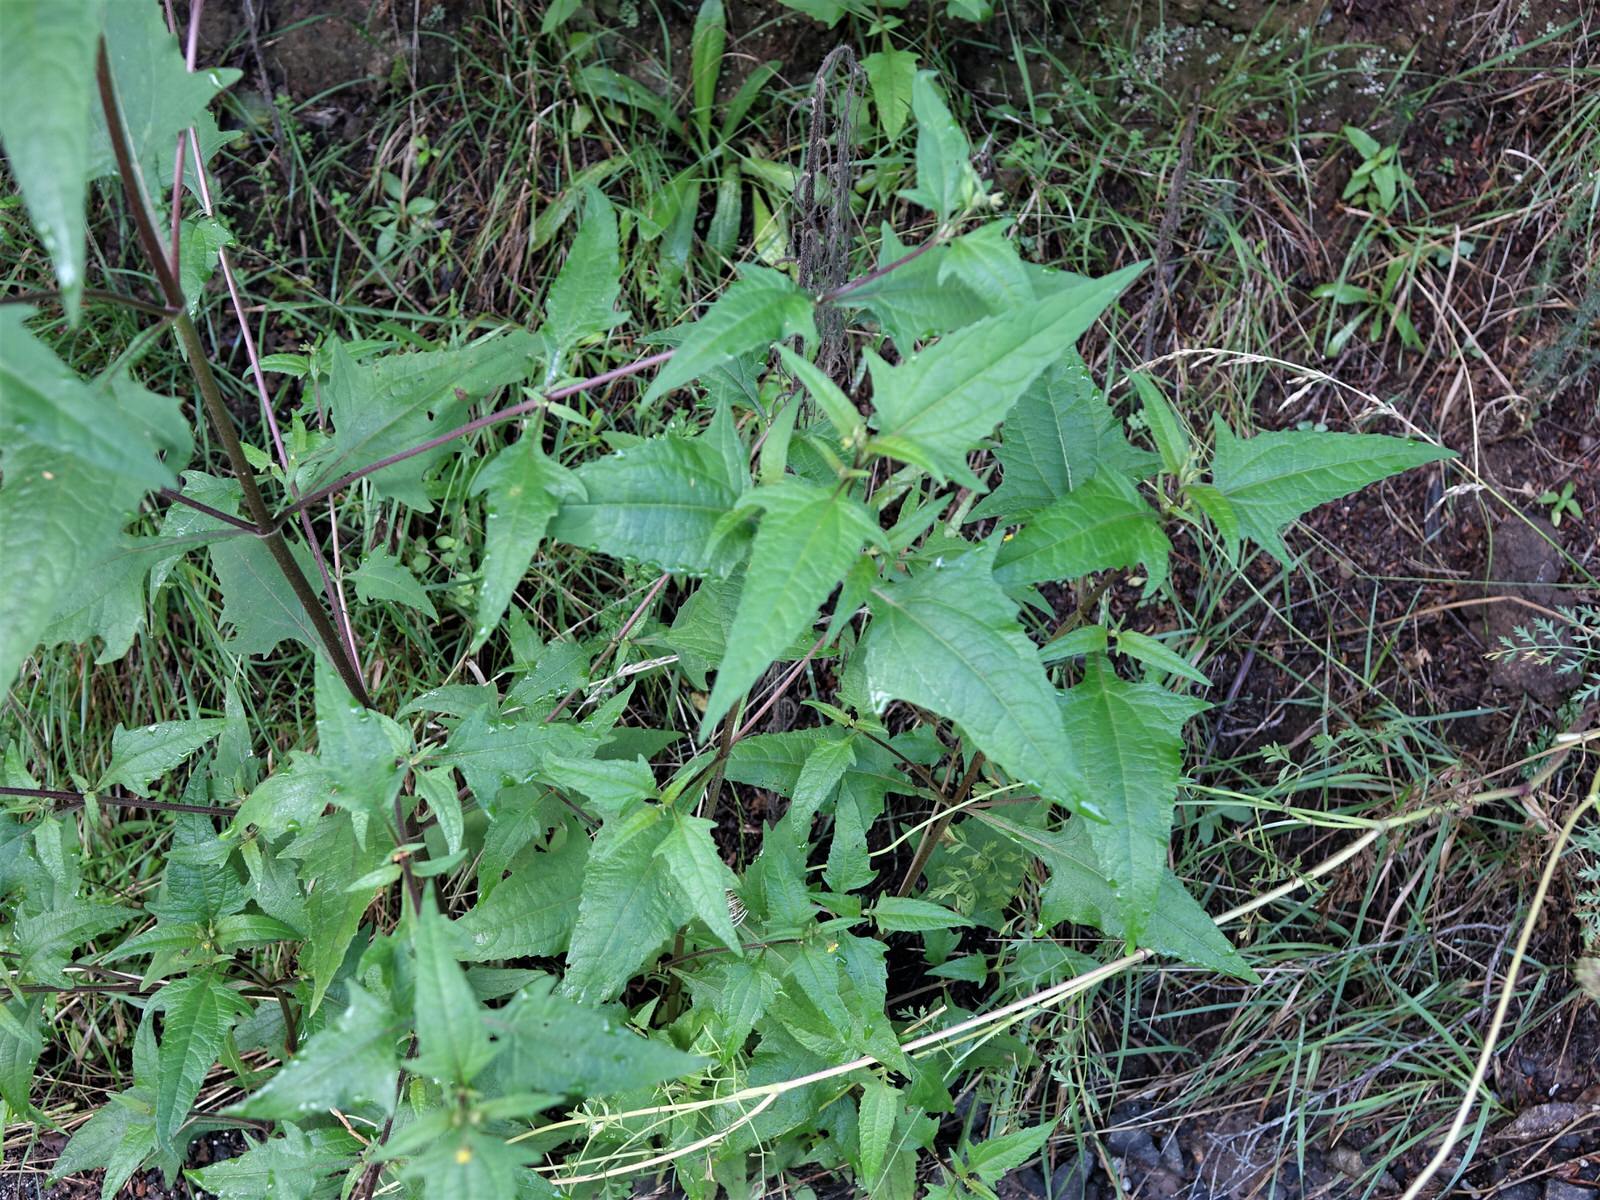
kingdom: Plantae
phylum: Tracheophyta
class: Magnoliopsida
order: Asterales
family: Asteraceae
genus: Sigesbeckia
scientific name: Sigesbeckia orientalis
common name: Eastern st paul's-wort
